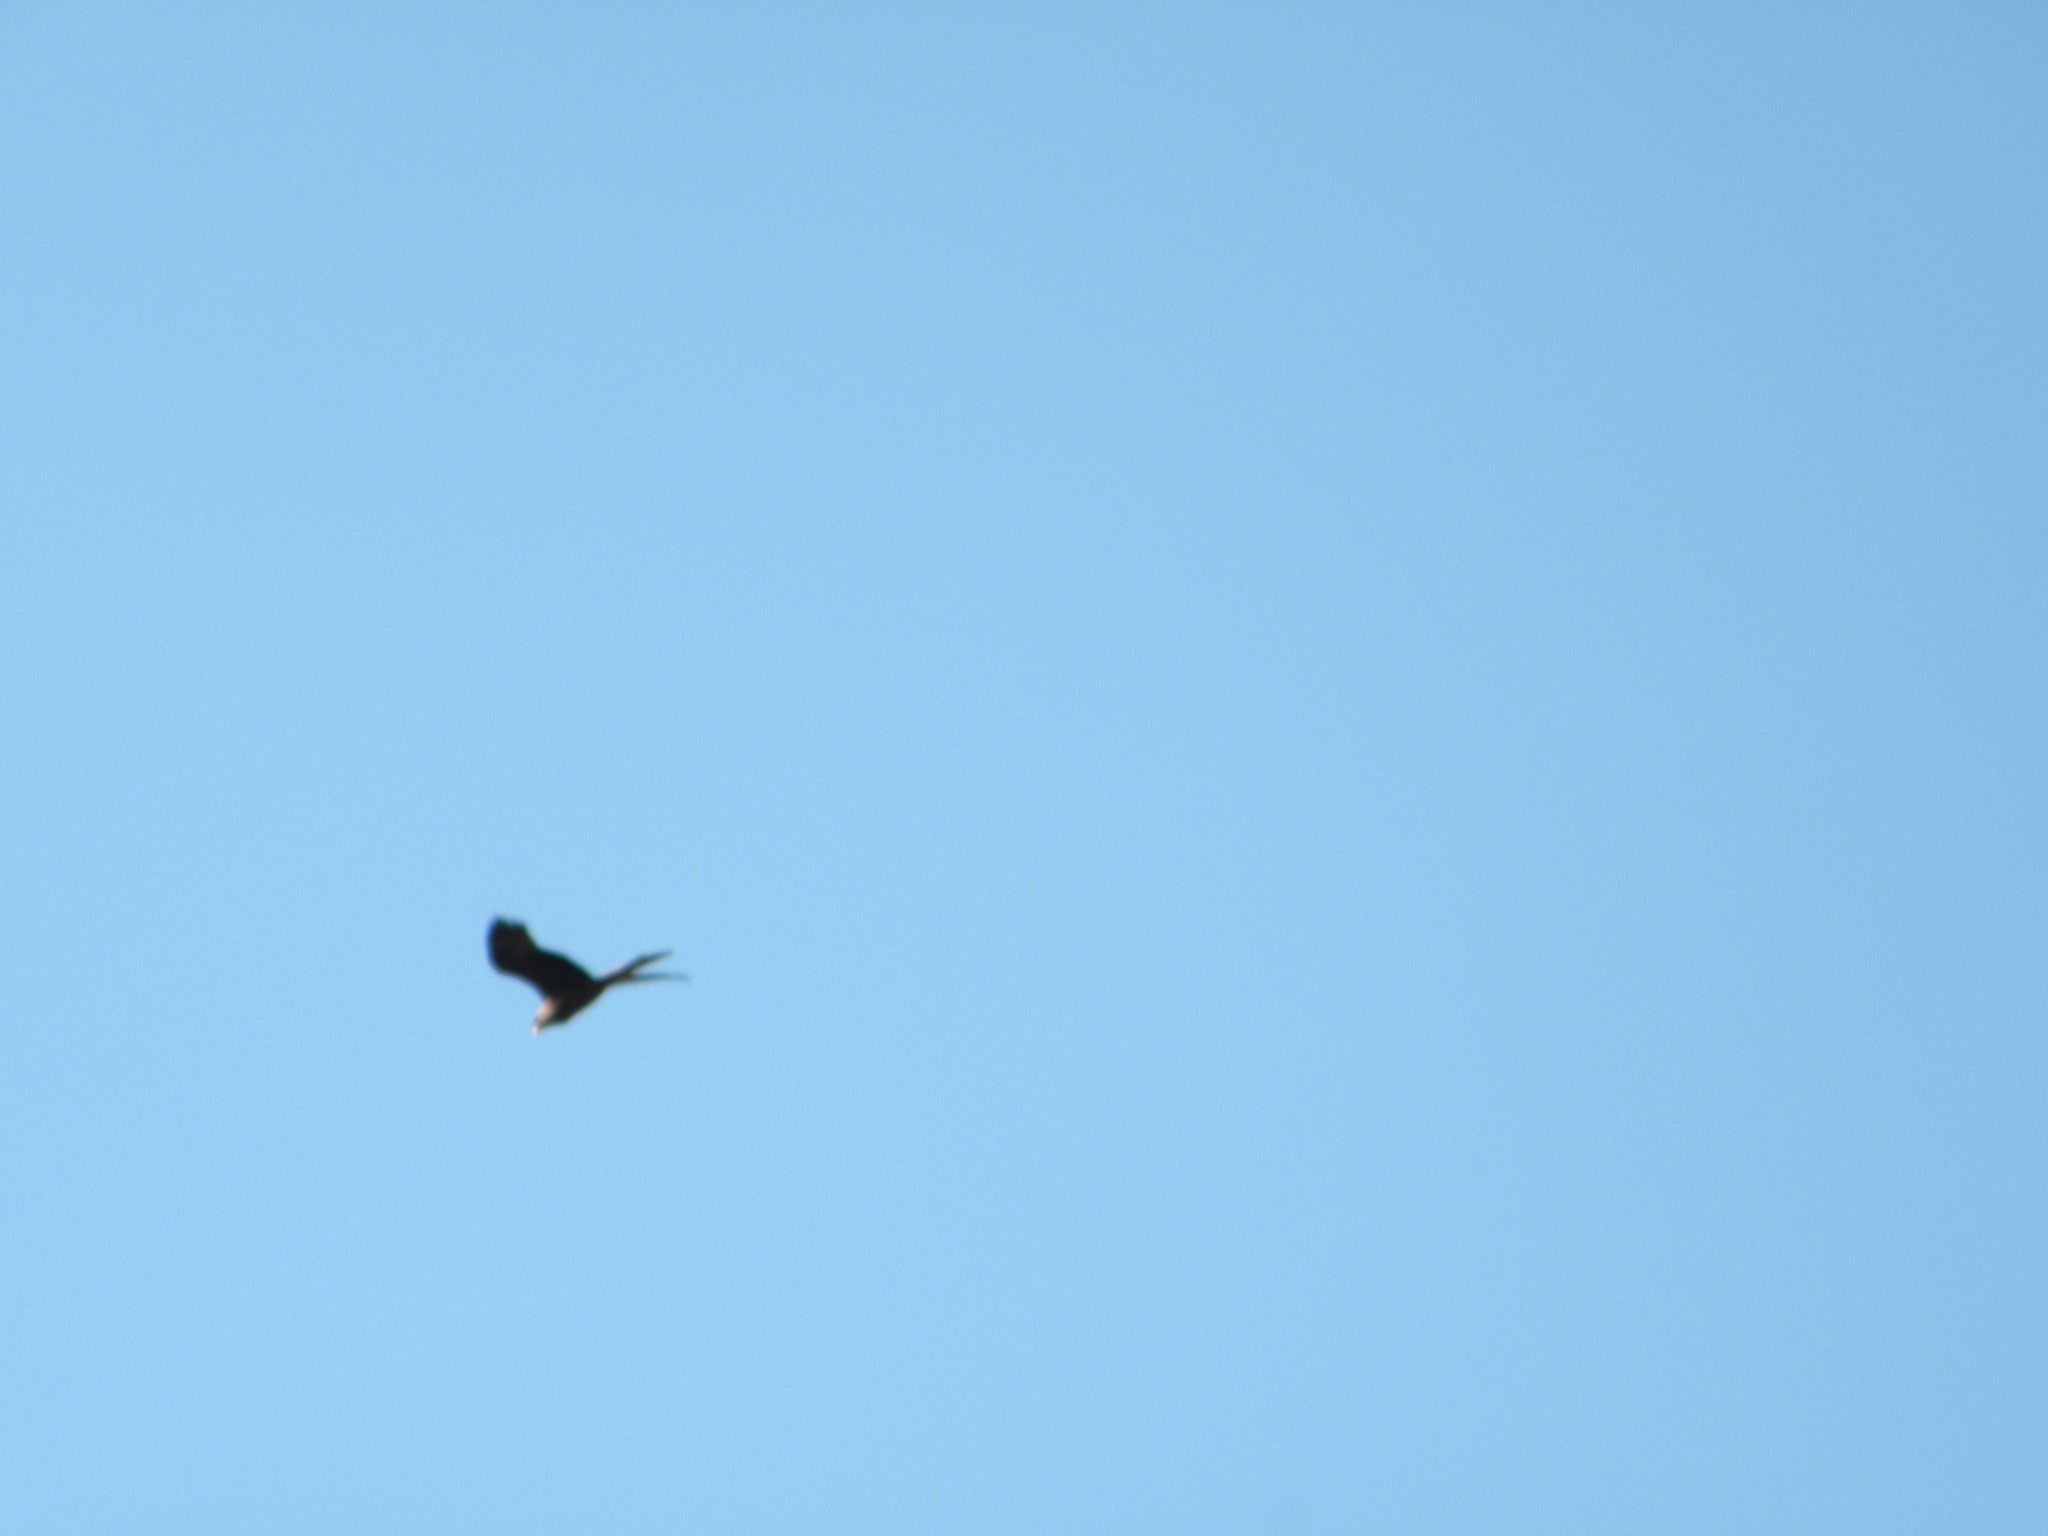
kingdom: Animalia
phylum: Chordata
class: Aves
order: Accipitriformes
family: Accipitridae
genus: Milvus
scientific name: Milvus migrans
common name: Black kite
